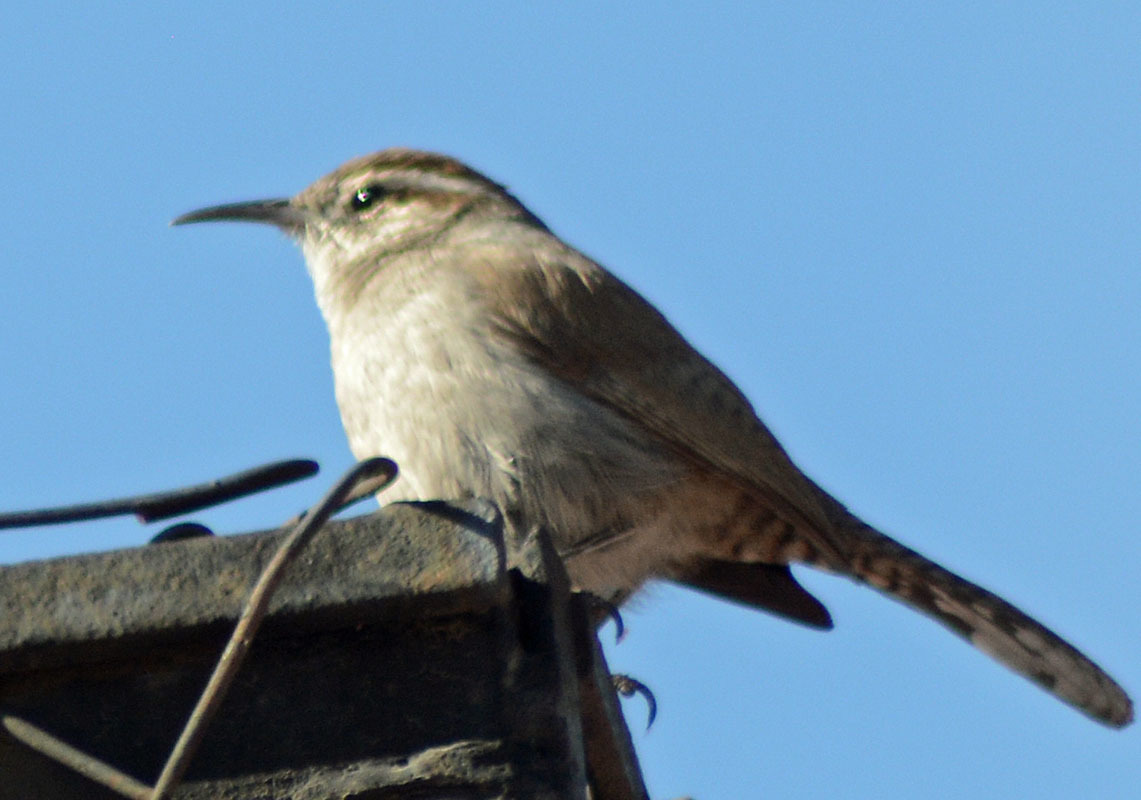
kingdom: Animalia
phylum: Chordata
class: Aves
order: Passeriformes
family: Troglodytidae
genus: Thryomanes
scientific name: Thryomanes bewickii
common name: Bewick's wren
